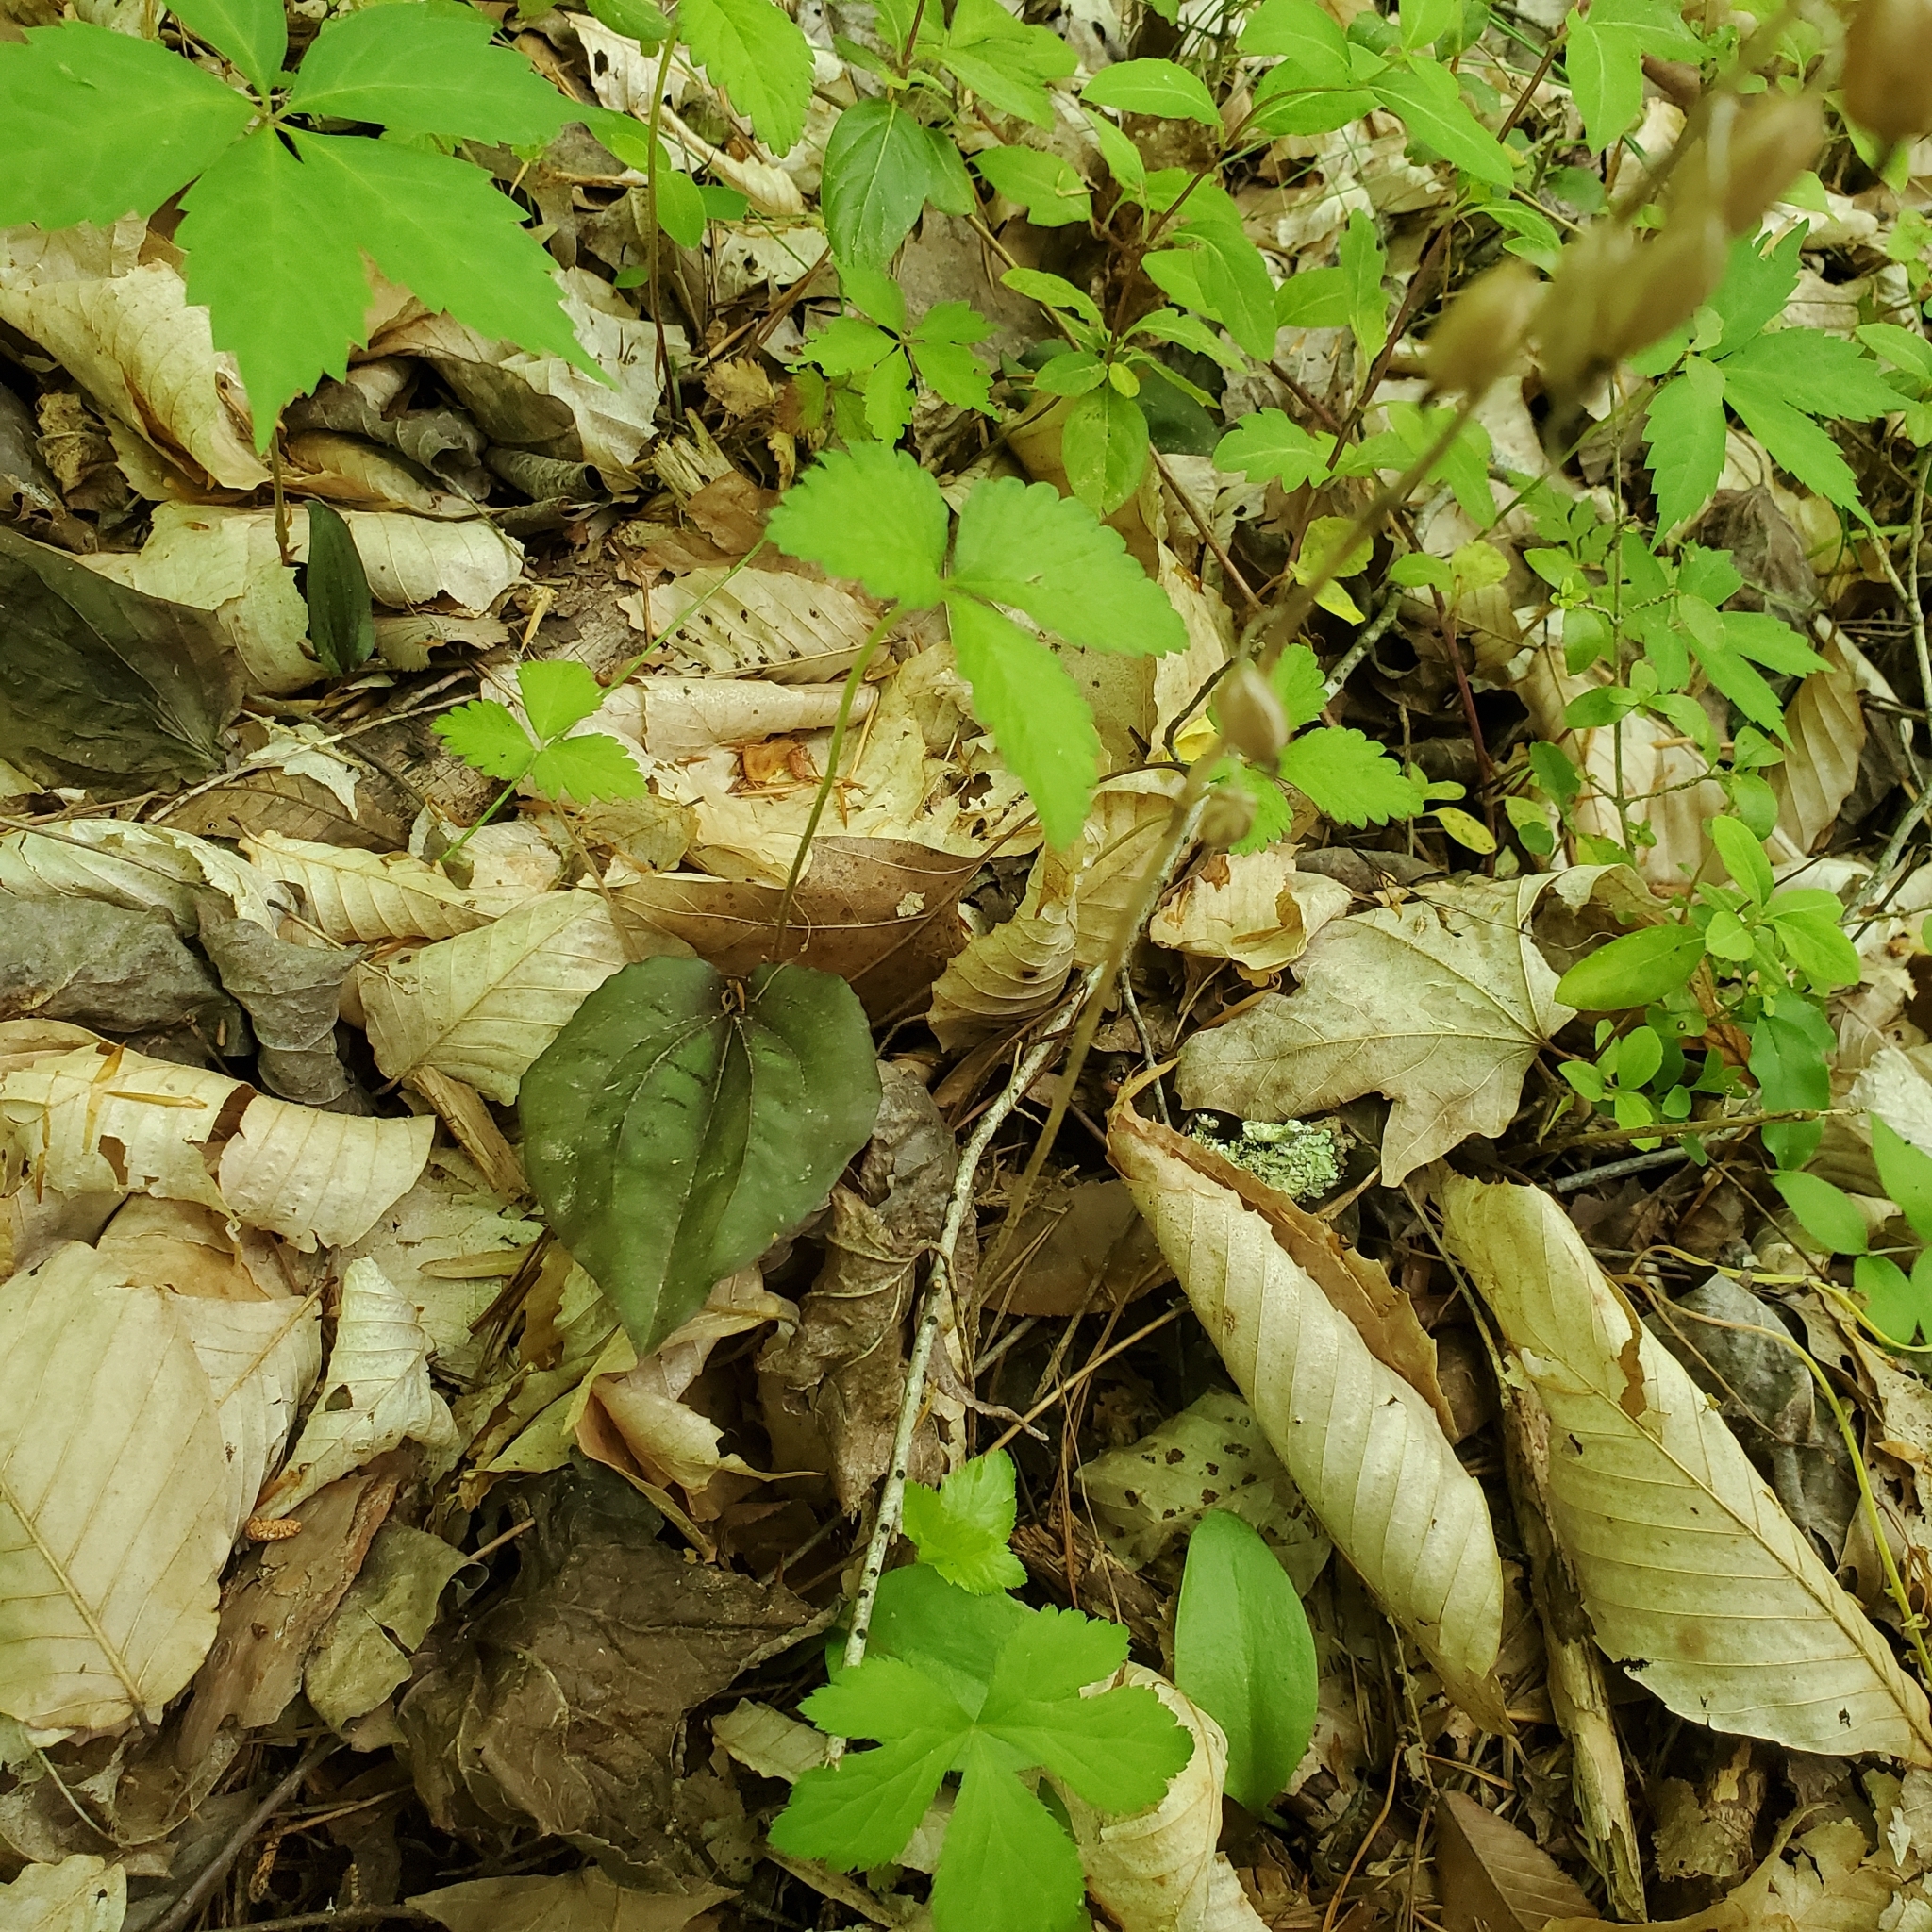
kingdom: Plantae
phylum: Tracheophyta
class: Liliopsida
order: Asparagales
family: Orchidaceae
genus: Tipularia
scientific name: Tipularia discolor
